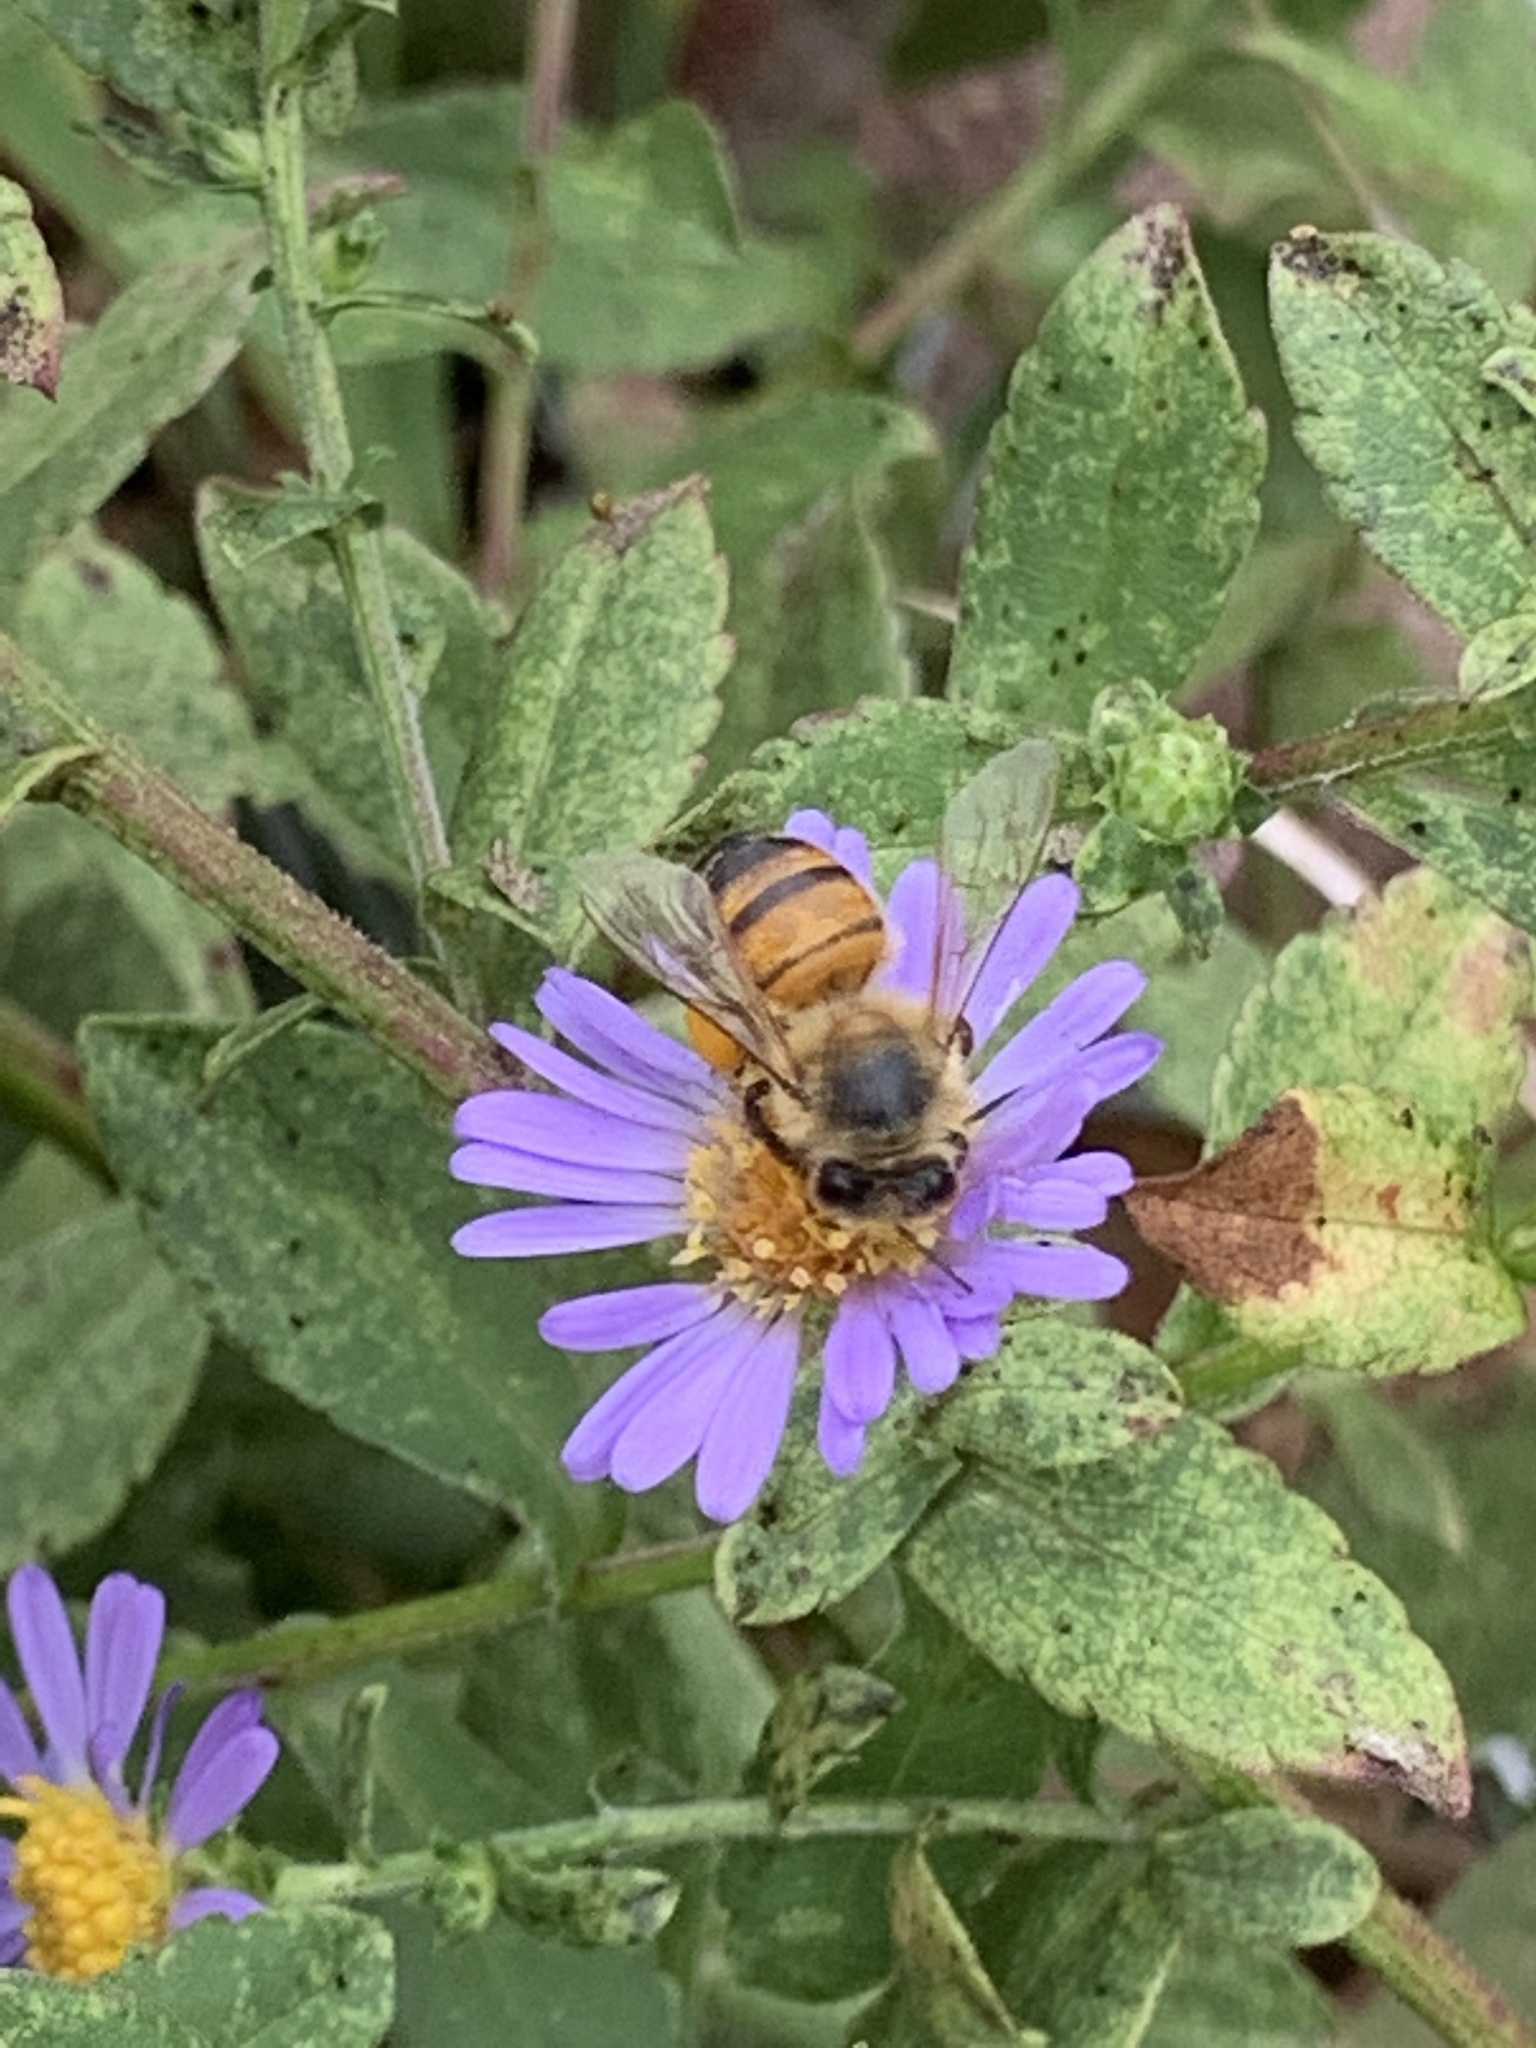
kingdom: Animalia
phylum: Arthropoda
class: Insecta
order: Hymenoptera
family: Apidae
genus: Apis
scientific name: Apis mellifera
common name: Honey bee
